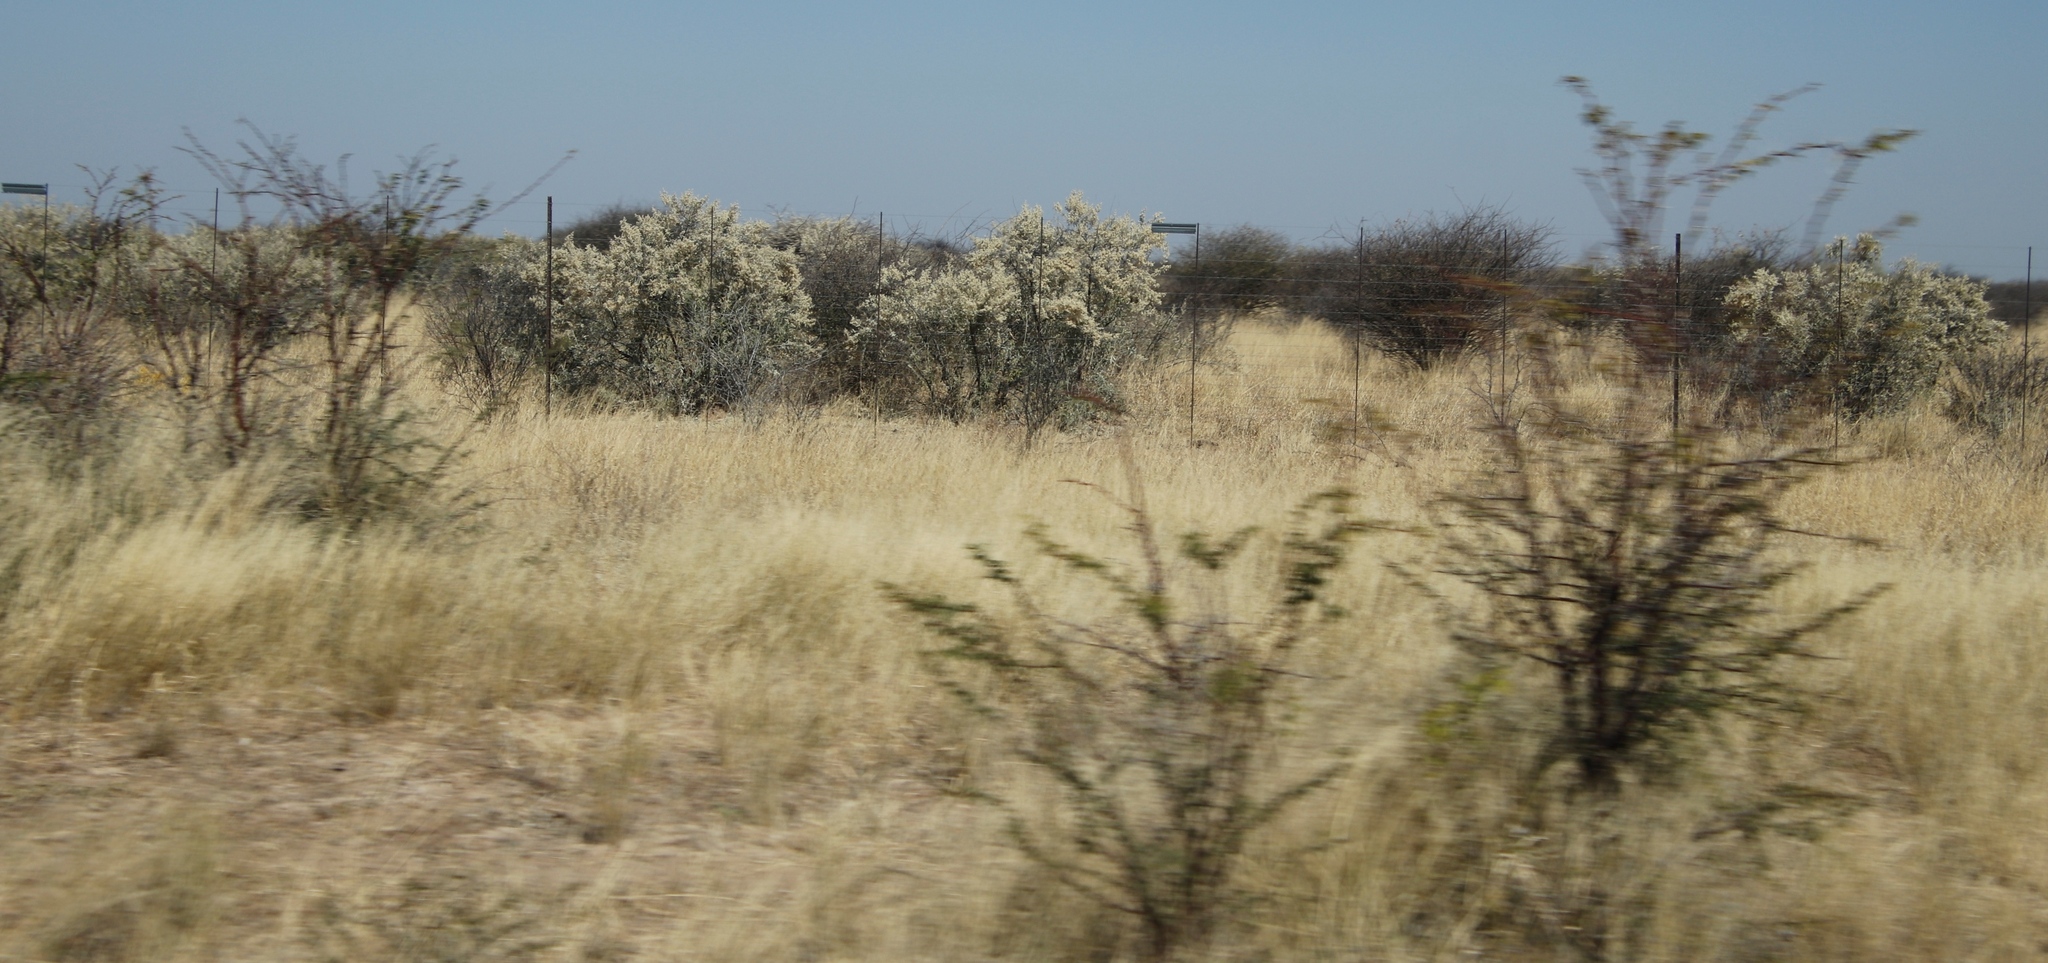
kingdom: Plantae
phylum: Tracheophyta
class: Magnoliopsida
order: Fabales
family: Fabaceae
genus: Senegalia
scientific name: Senegalia mellifera
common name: Hookthorn
